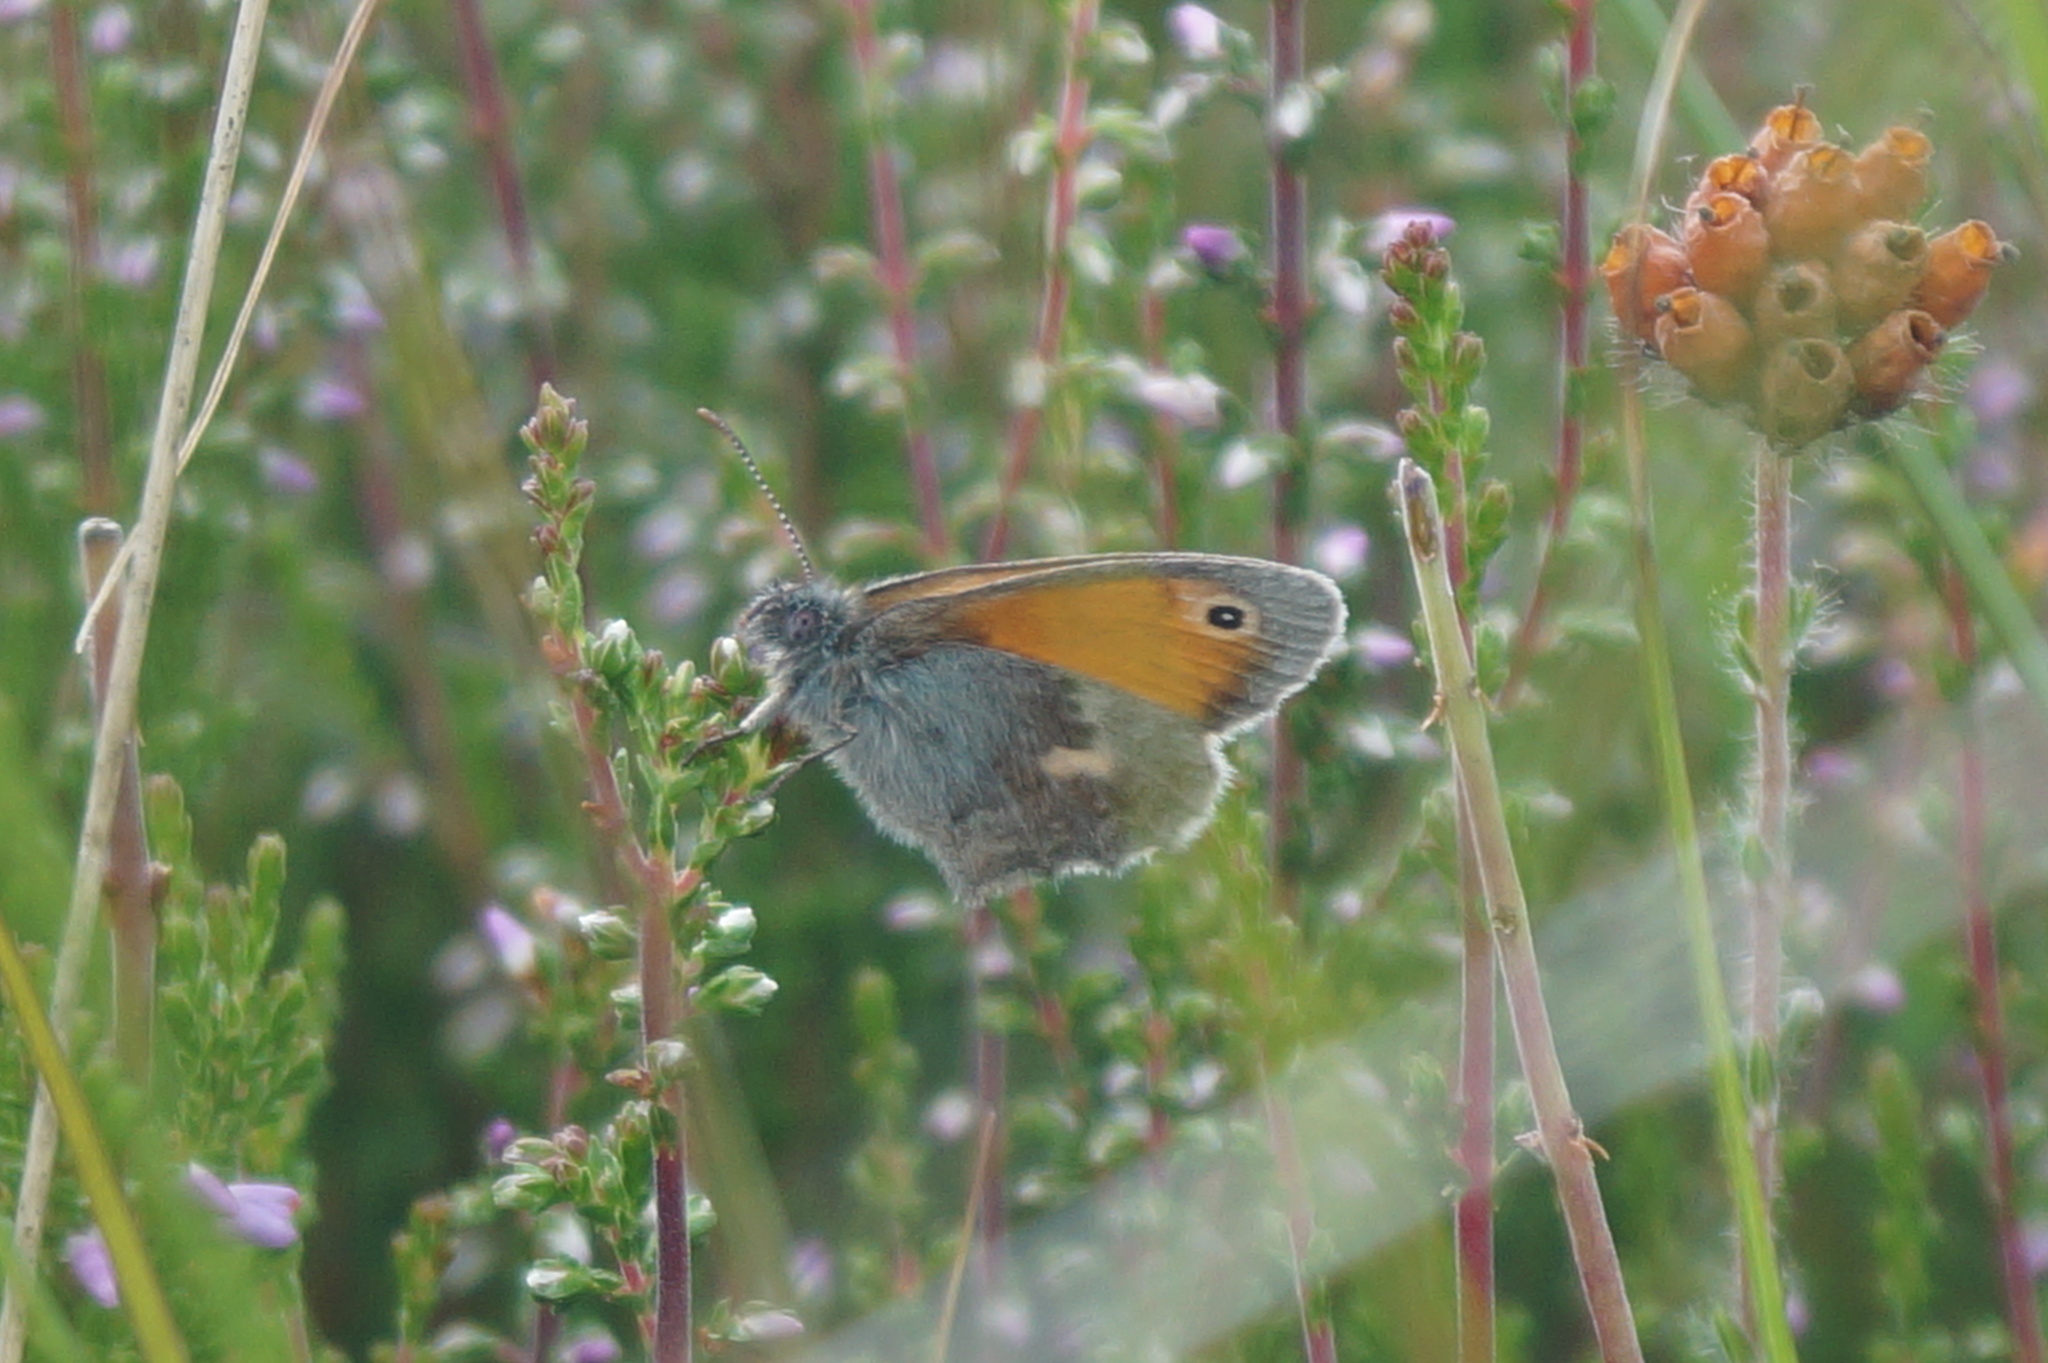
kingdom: Animalia
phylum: Arthropoda
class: Insecta
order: Lepidoptera
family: Nymphalidae
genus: Coenonympha
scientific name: Coenonympha pamphilus
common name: Small heath
